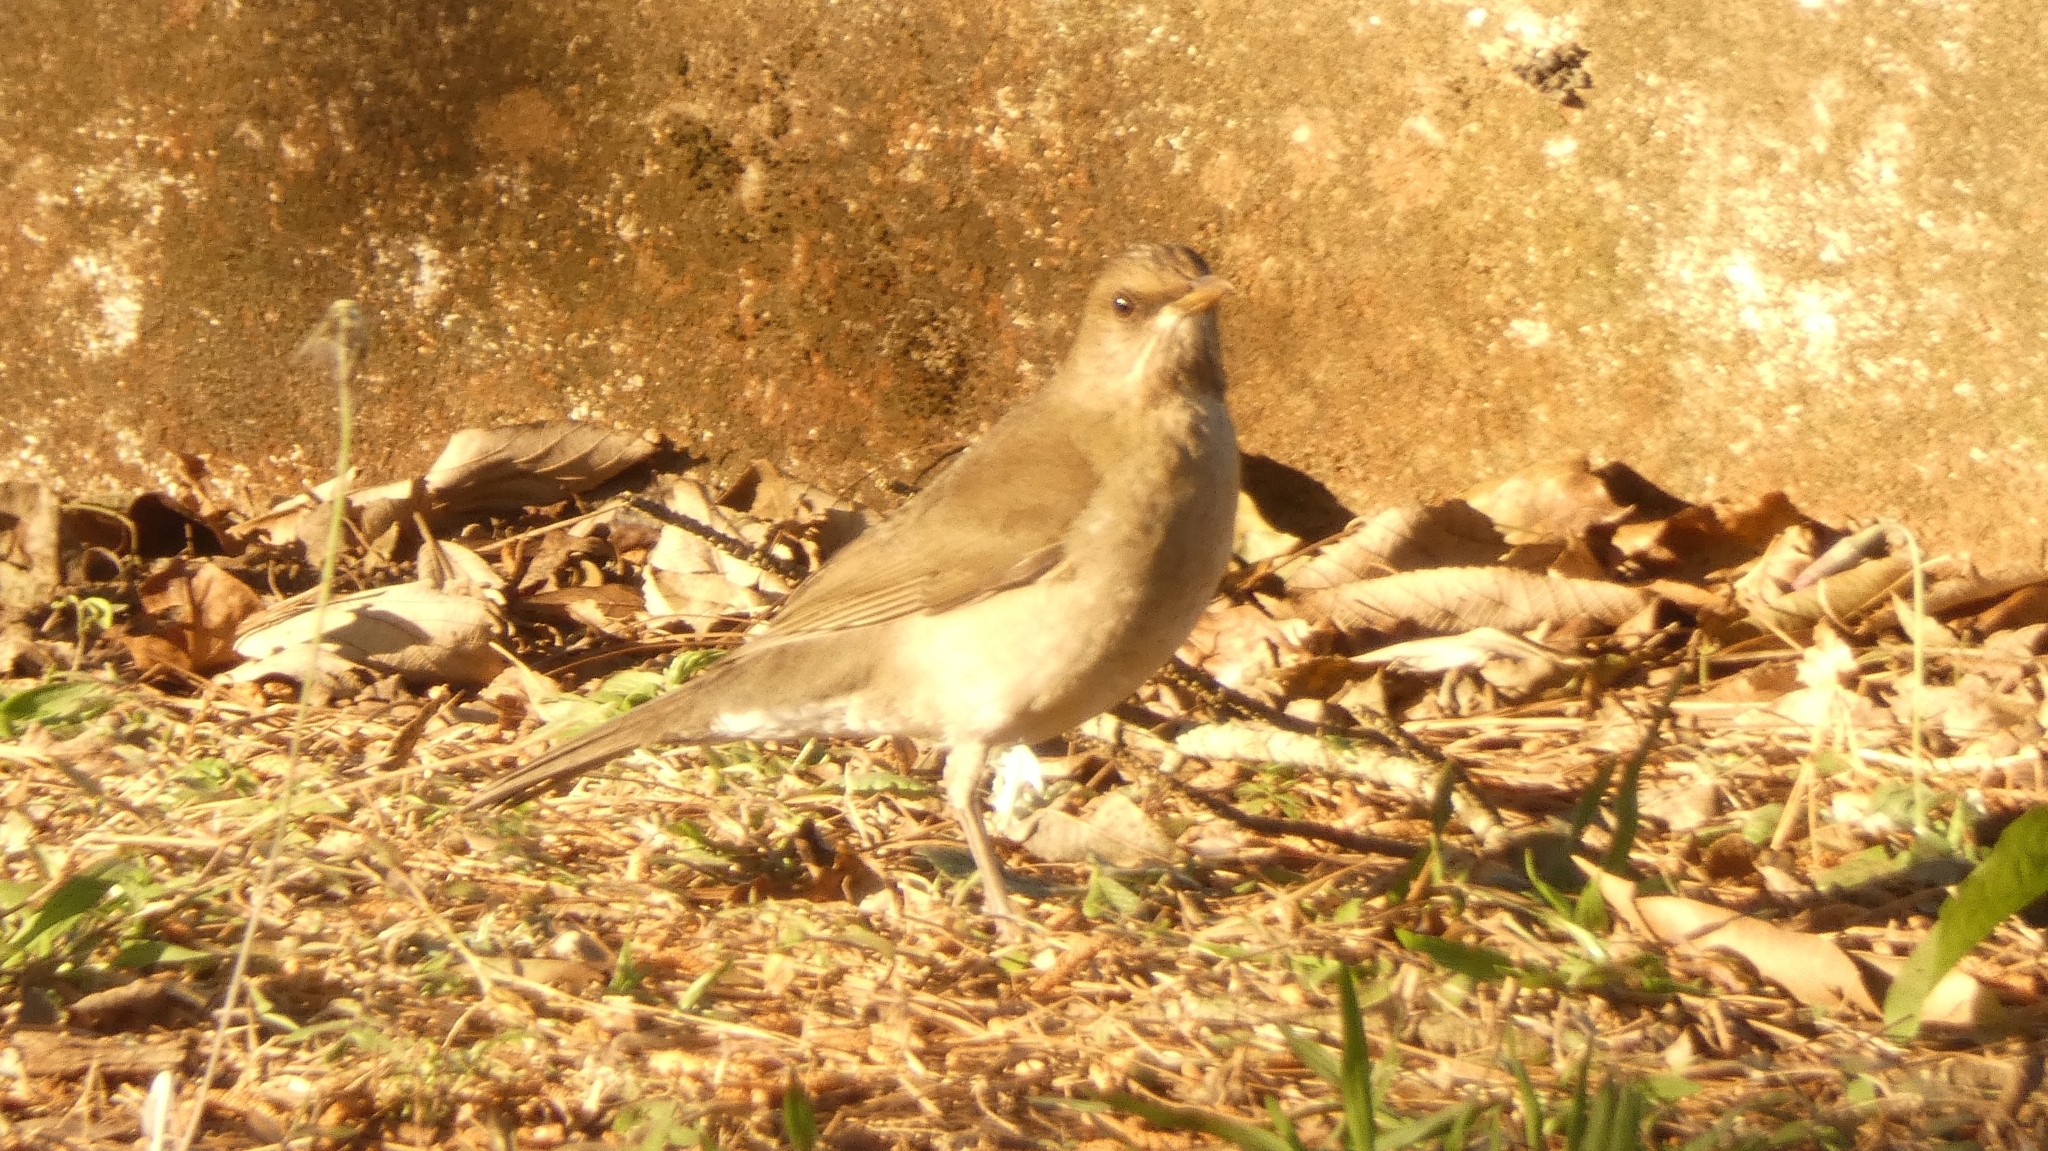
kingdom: Animalia
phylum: Chordata
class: Aves
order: Passeriformes
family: Turdidae
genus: Turdus
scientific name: Turdus amaurochalinus
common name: Creamy-bellied thrush
